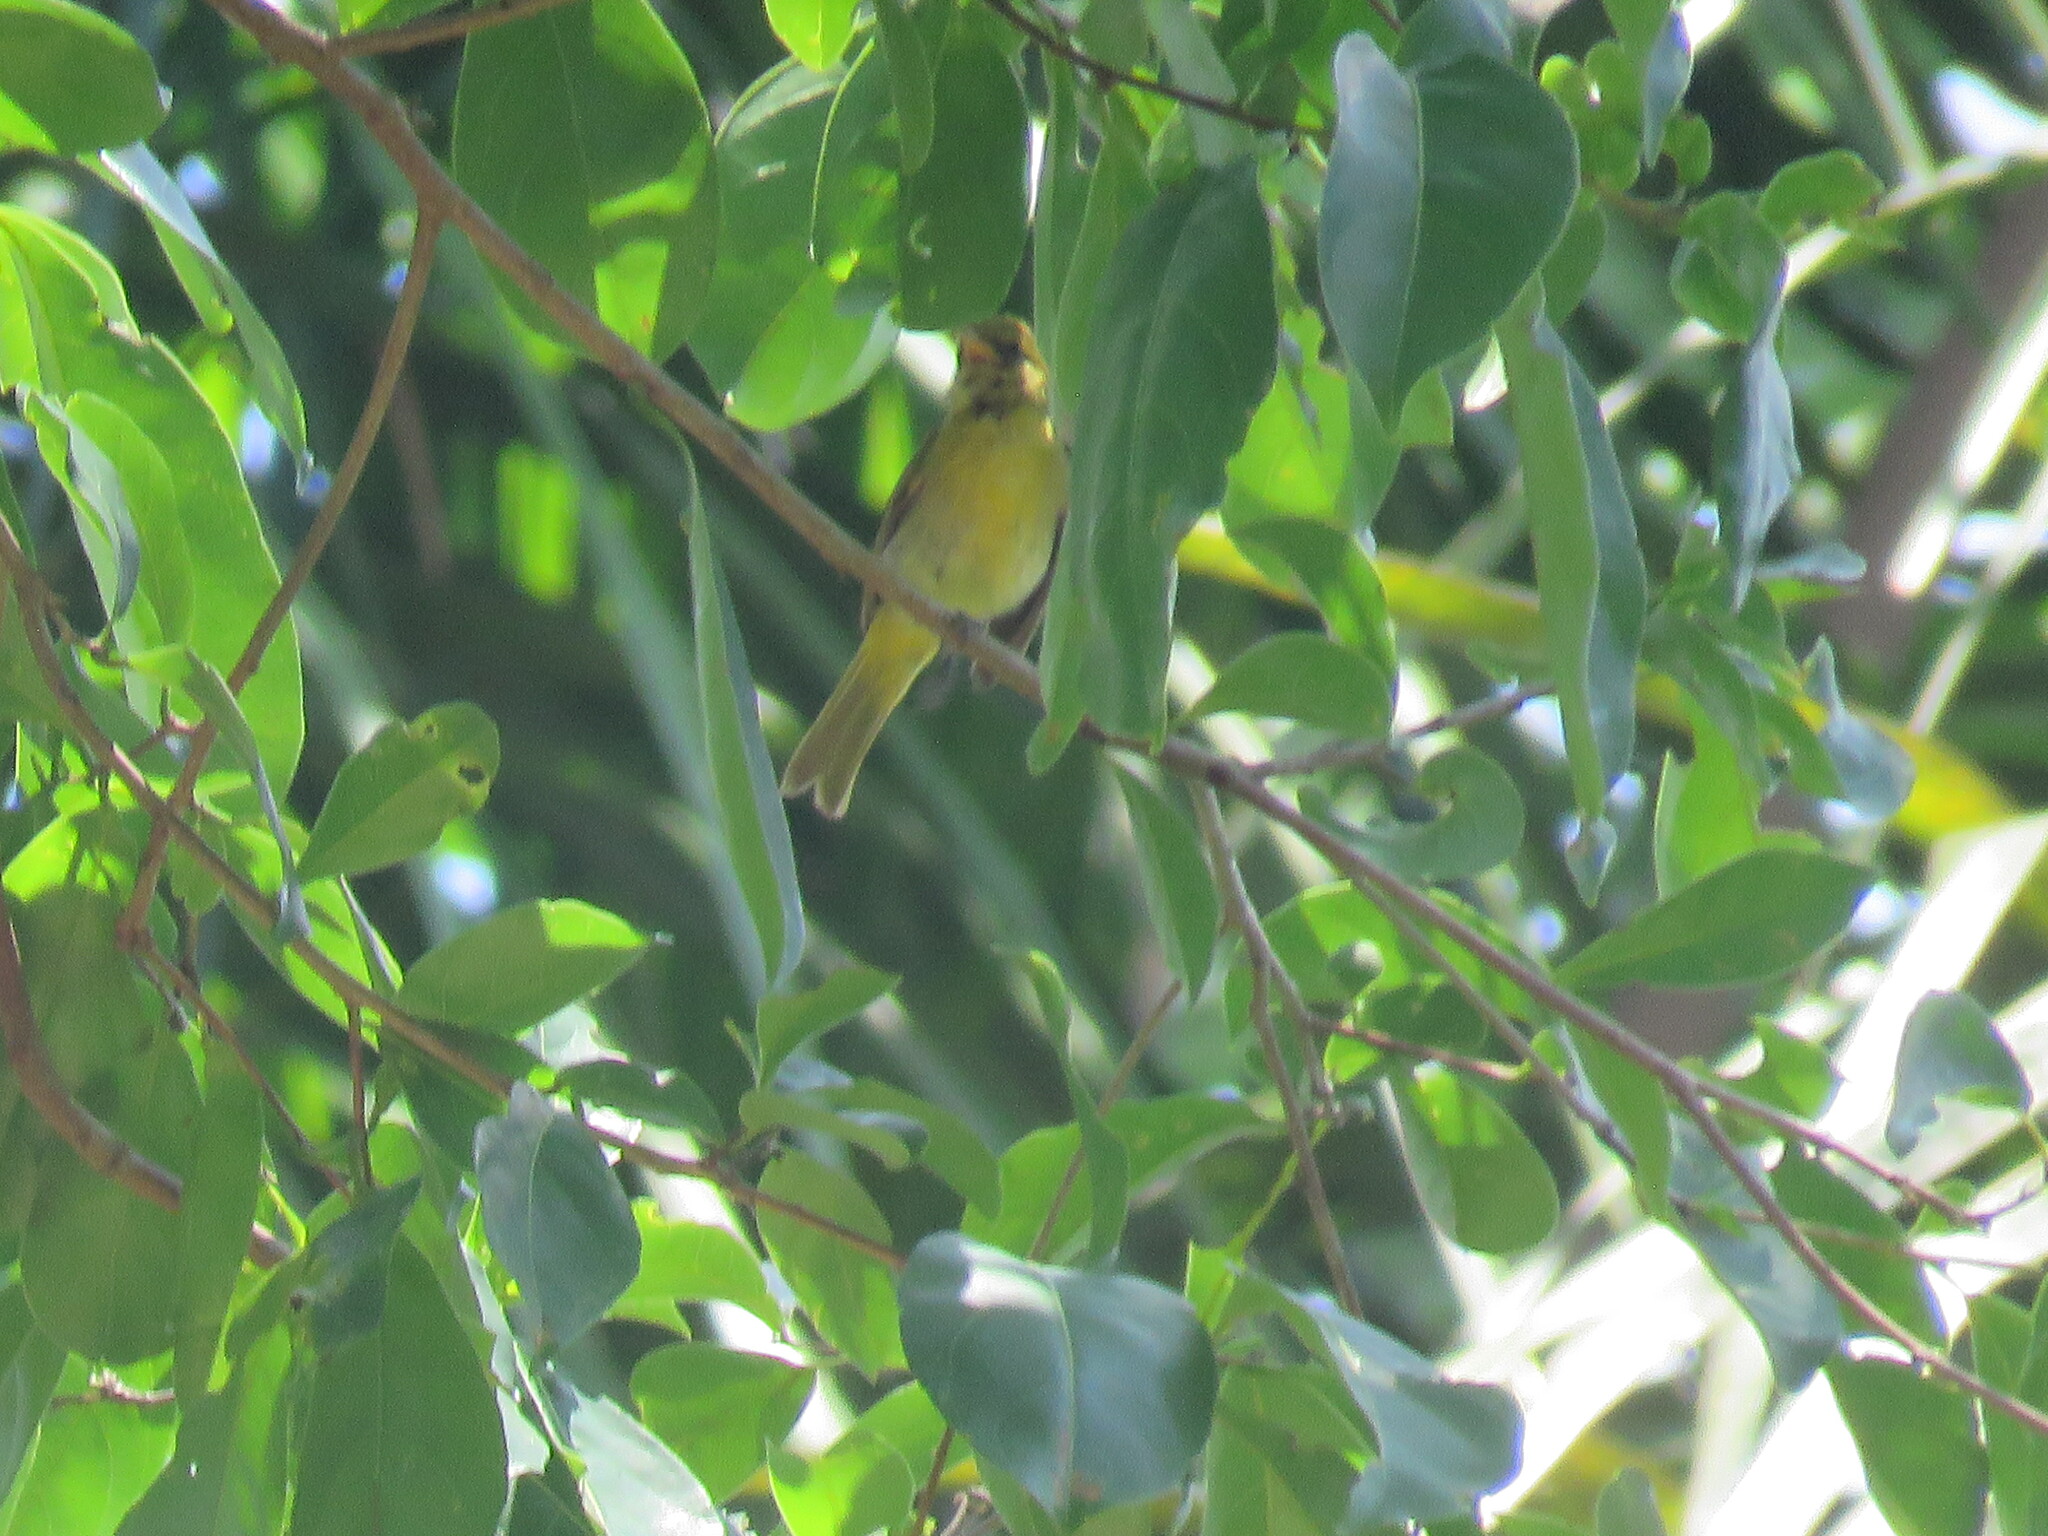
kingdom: Animalia
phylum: Chordata
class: Aves
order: Passeriformes
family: Thraupidae
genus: Hemithraupis
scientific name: Hemithraupis guira
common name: Guira tanager
